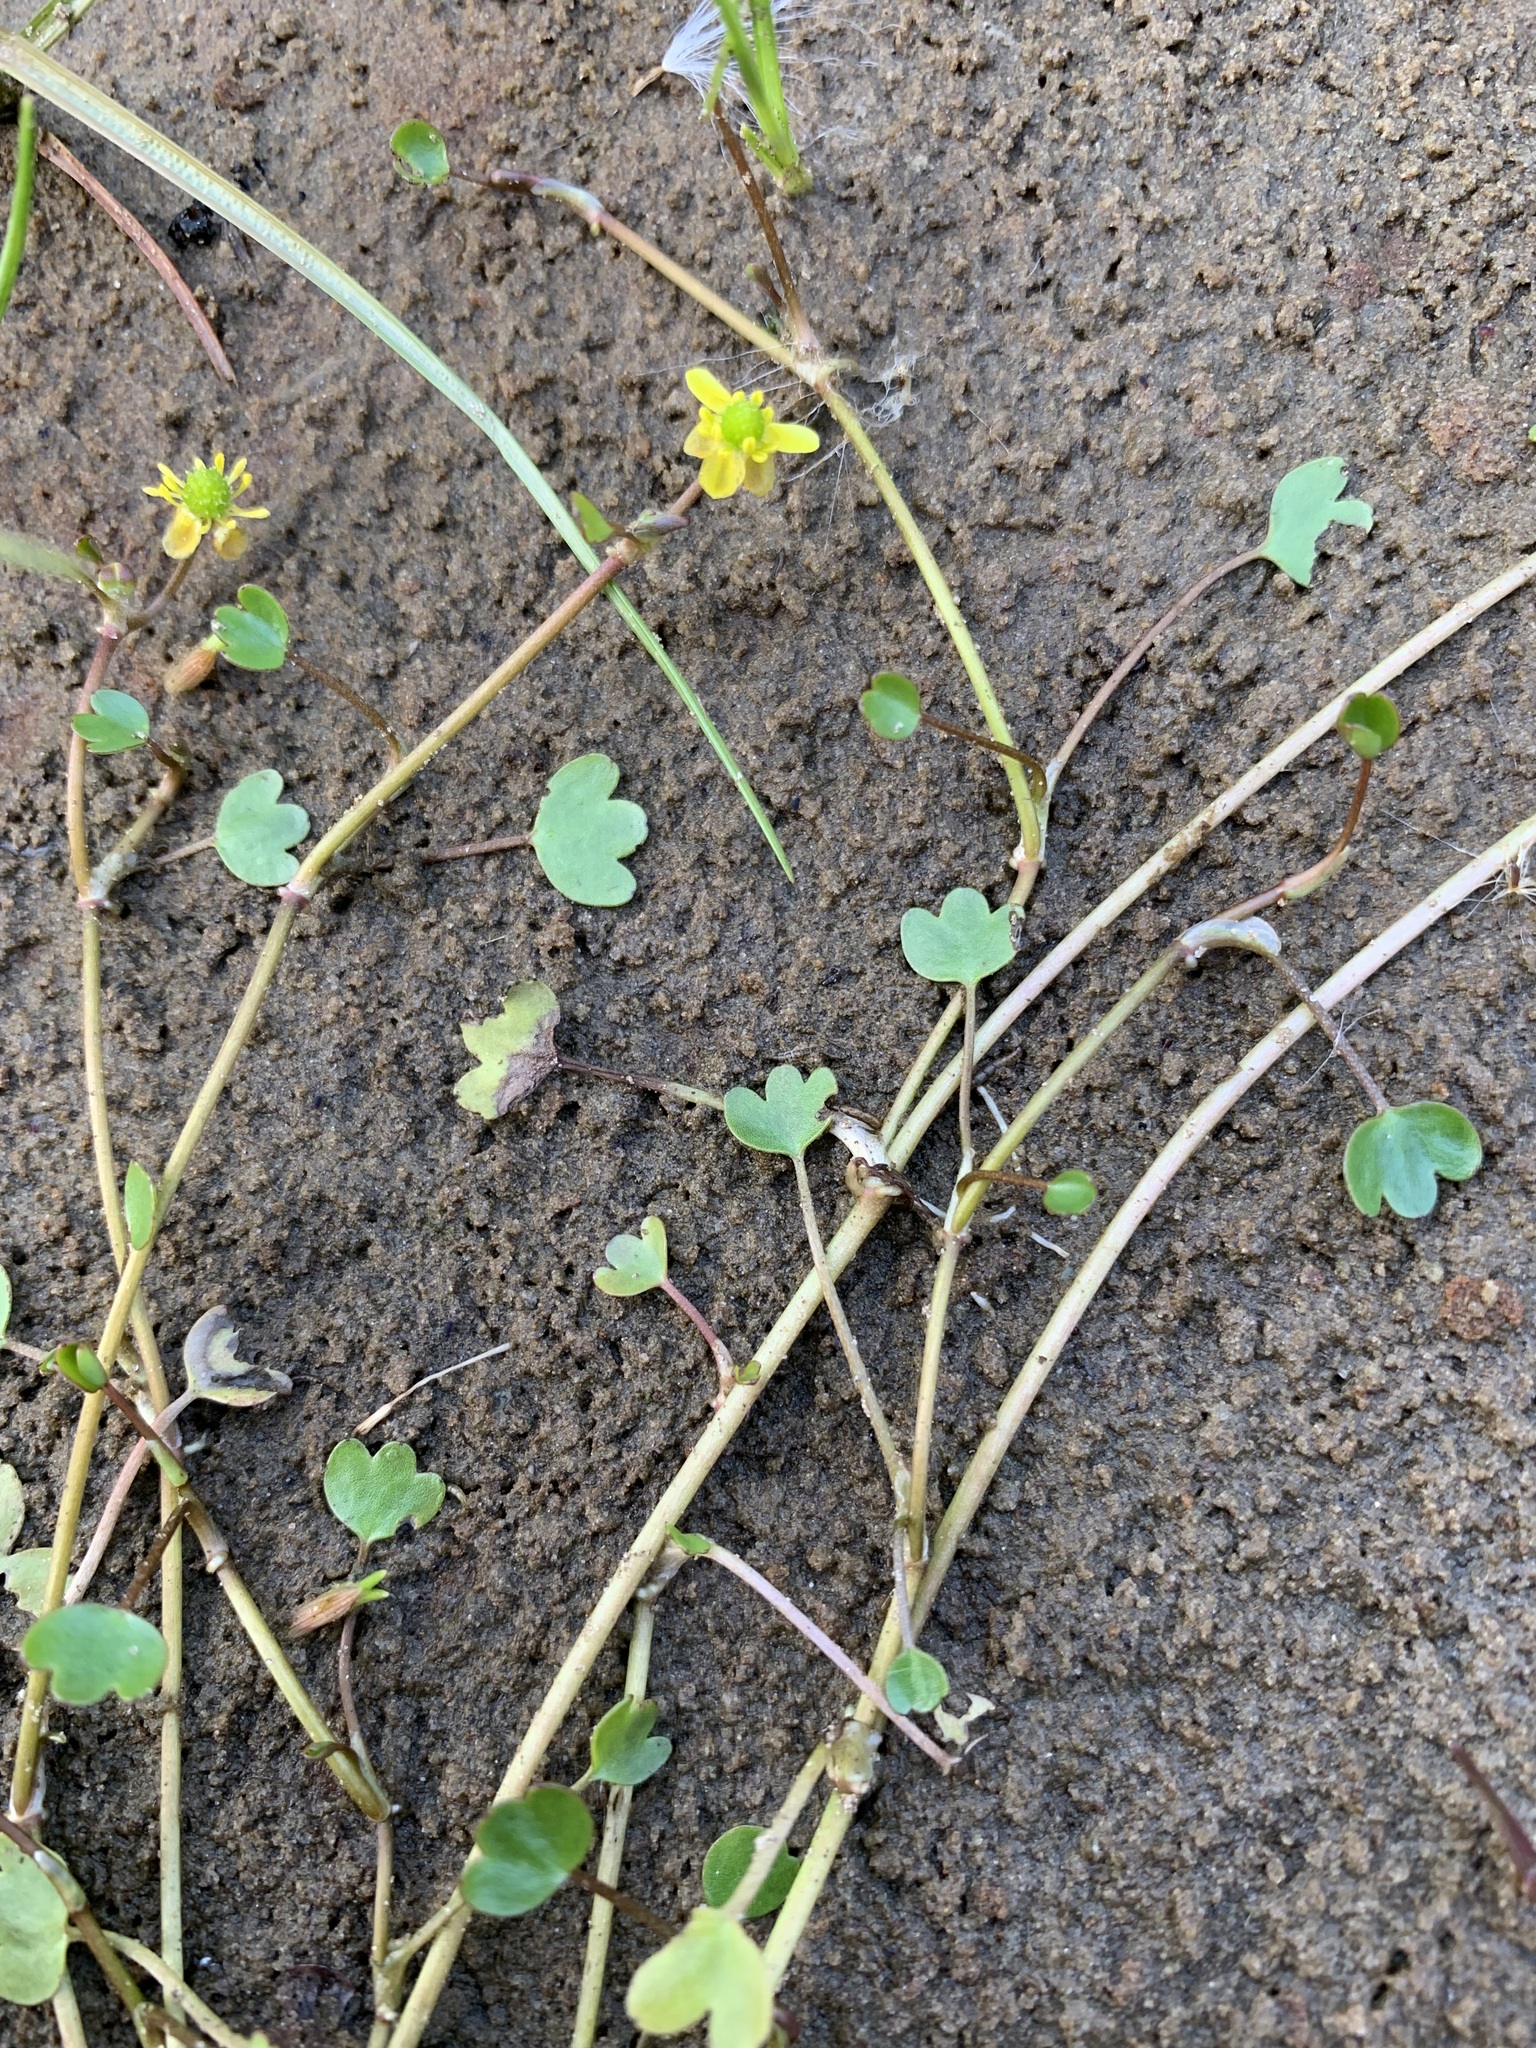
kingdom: Plantae
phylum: Tracheophyta
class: Magnoliopsida
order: Ranunculales
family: Ranunculaceae
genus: Ranunculus
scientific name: Ranunculus hyperboreus
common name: Arctic buttercup
